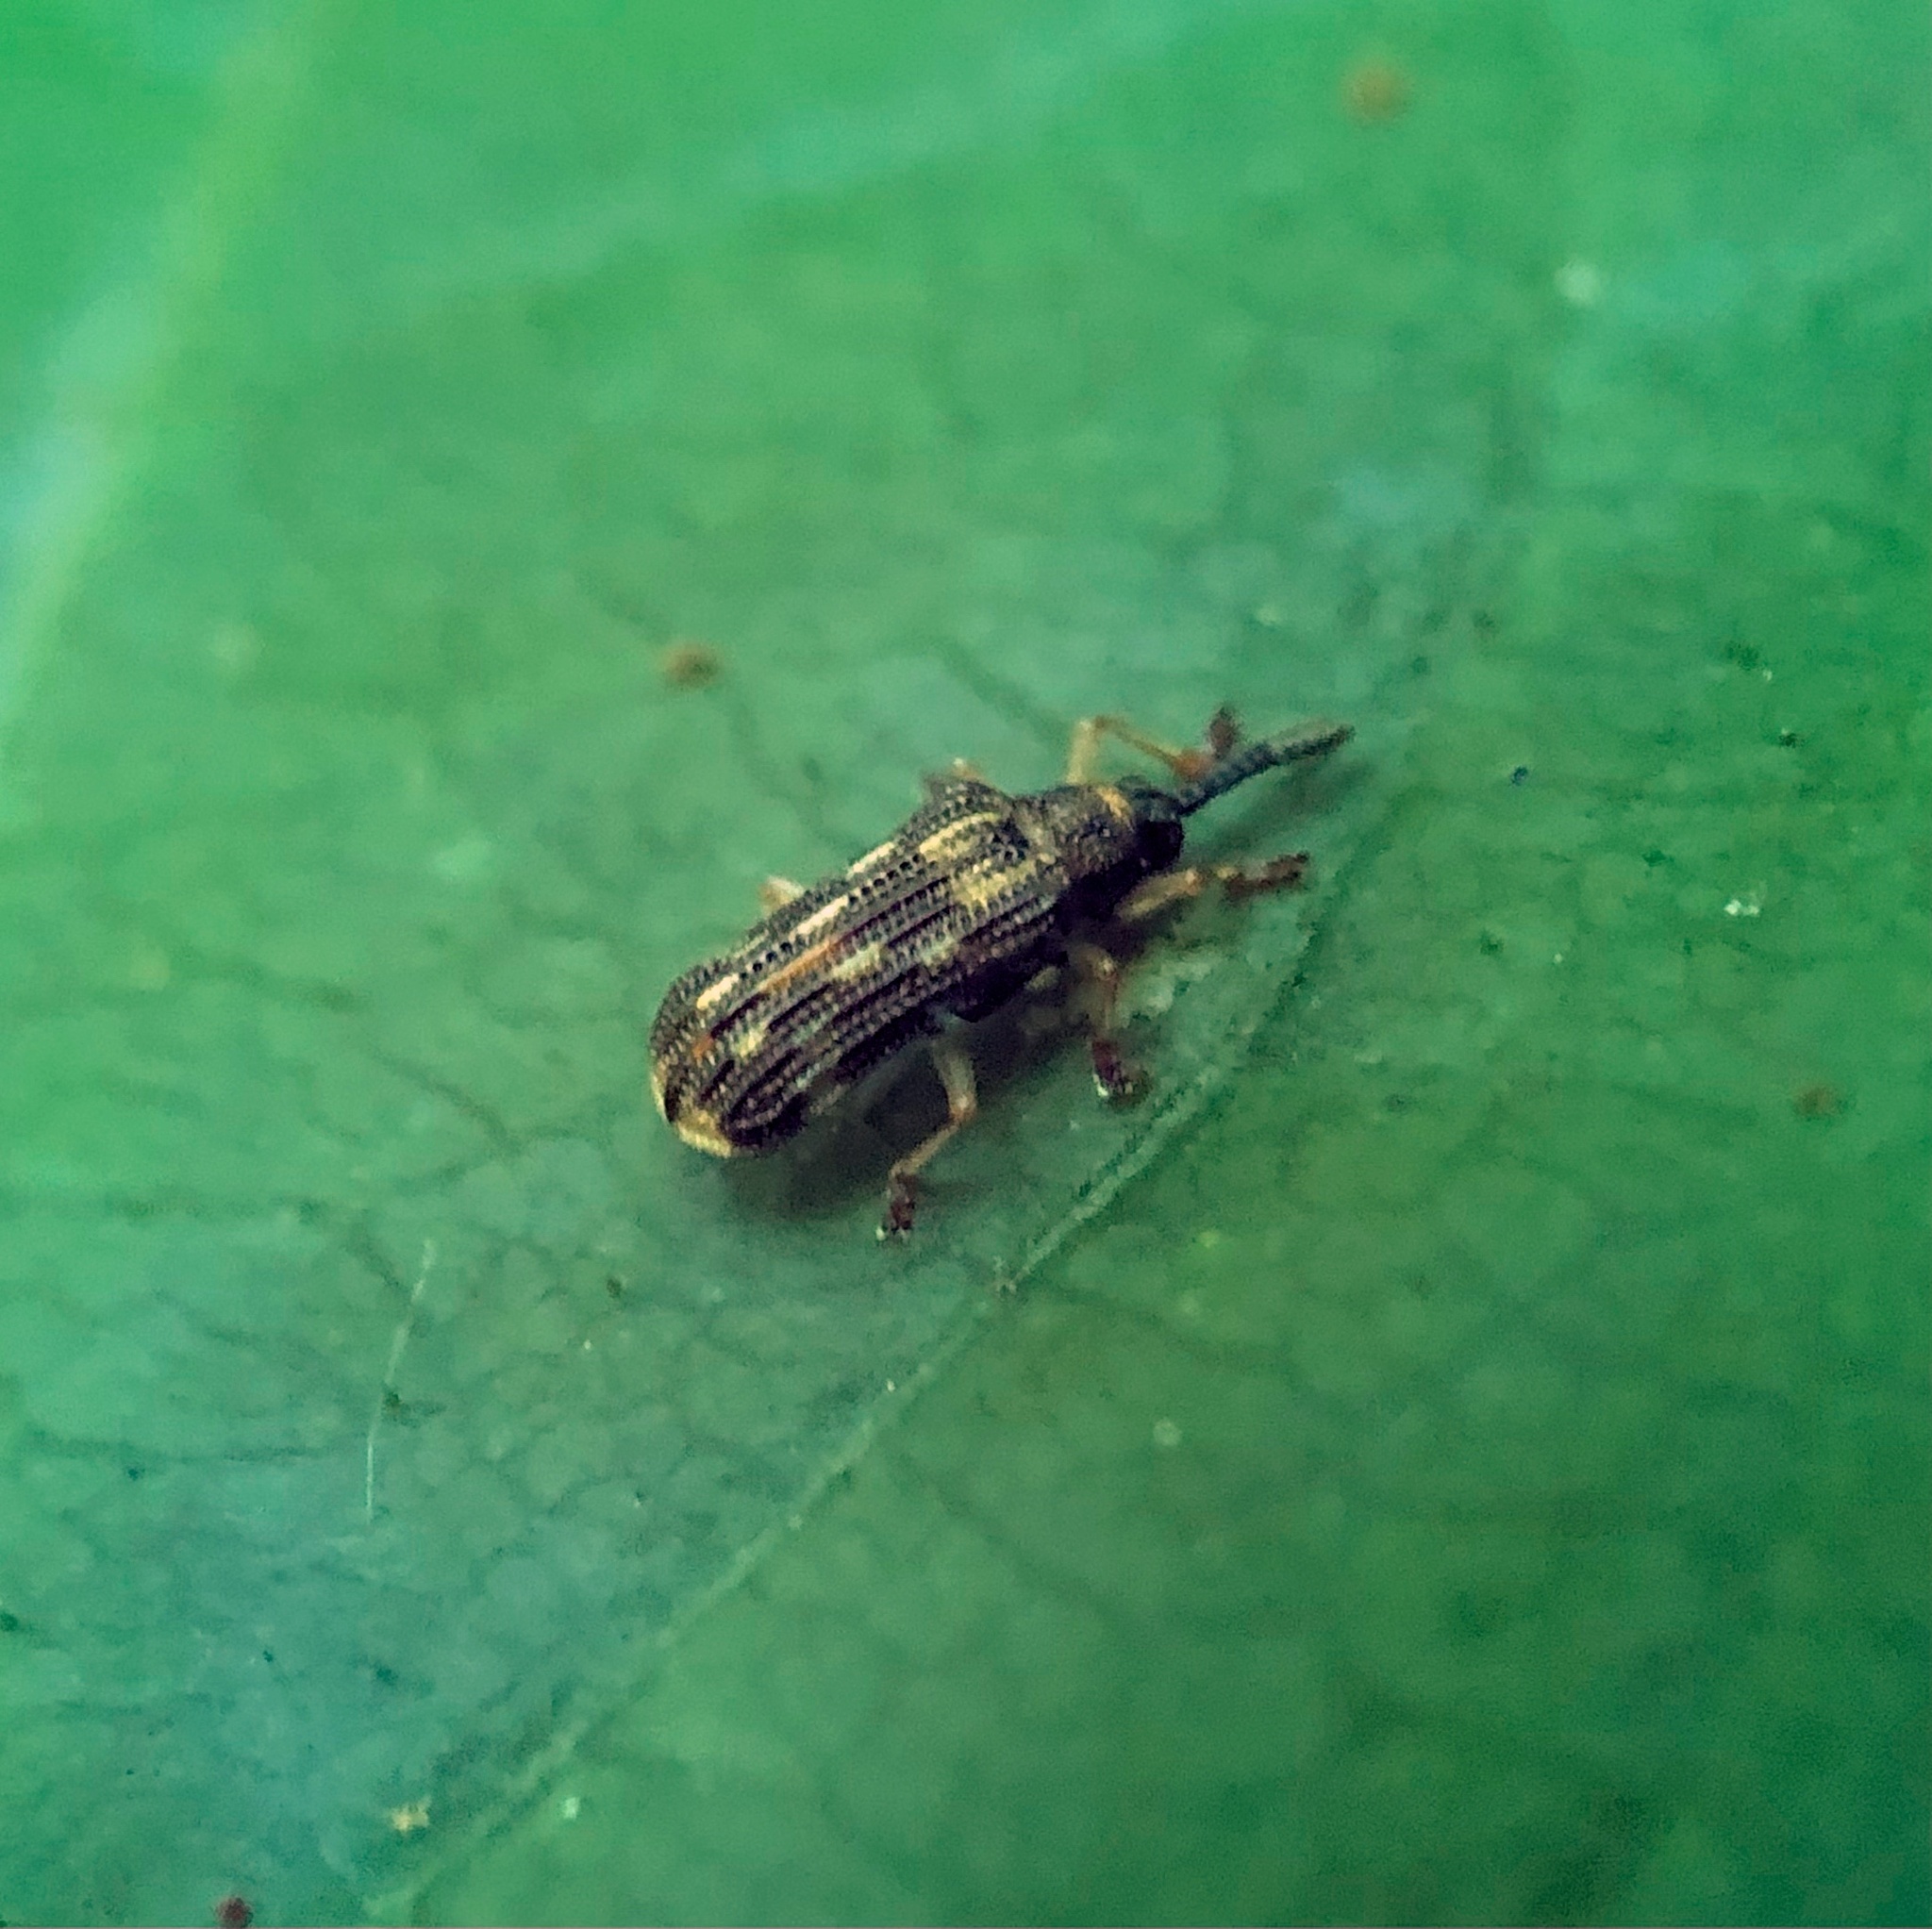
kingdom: Animalia
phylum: Arthropoda
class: Insecta
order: Coleoptera
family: Chrysomelidae
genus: Sumitrosis
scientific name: Sumitrosis inaequalis
